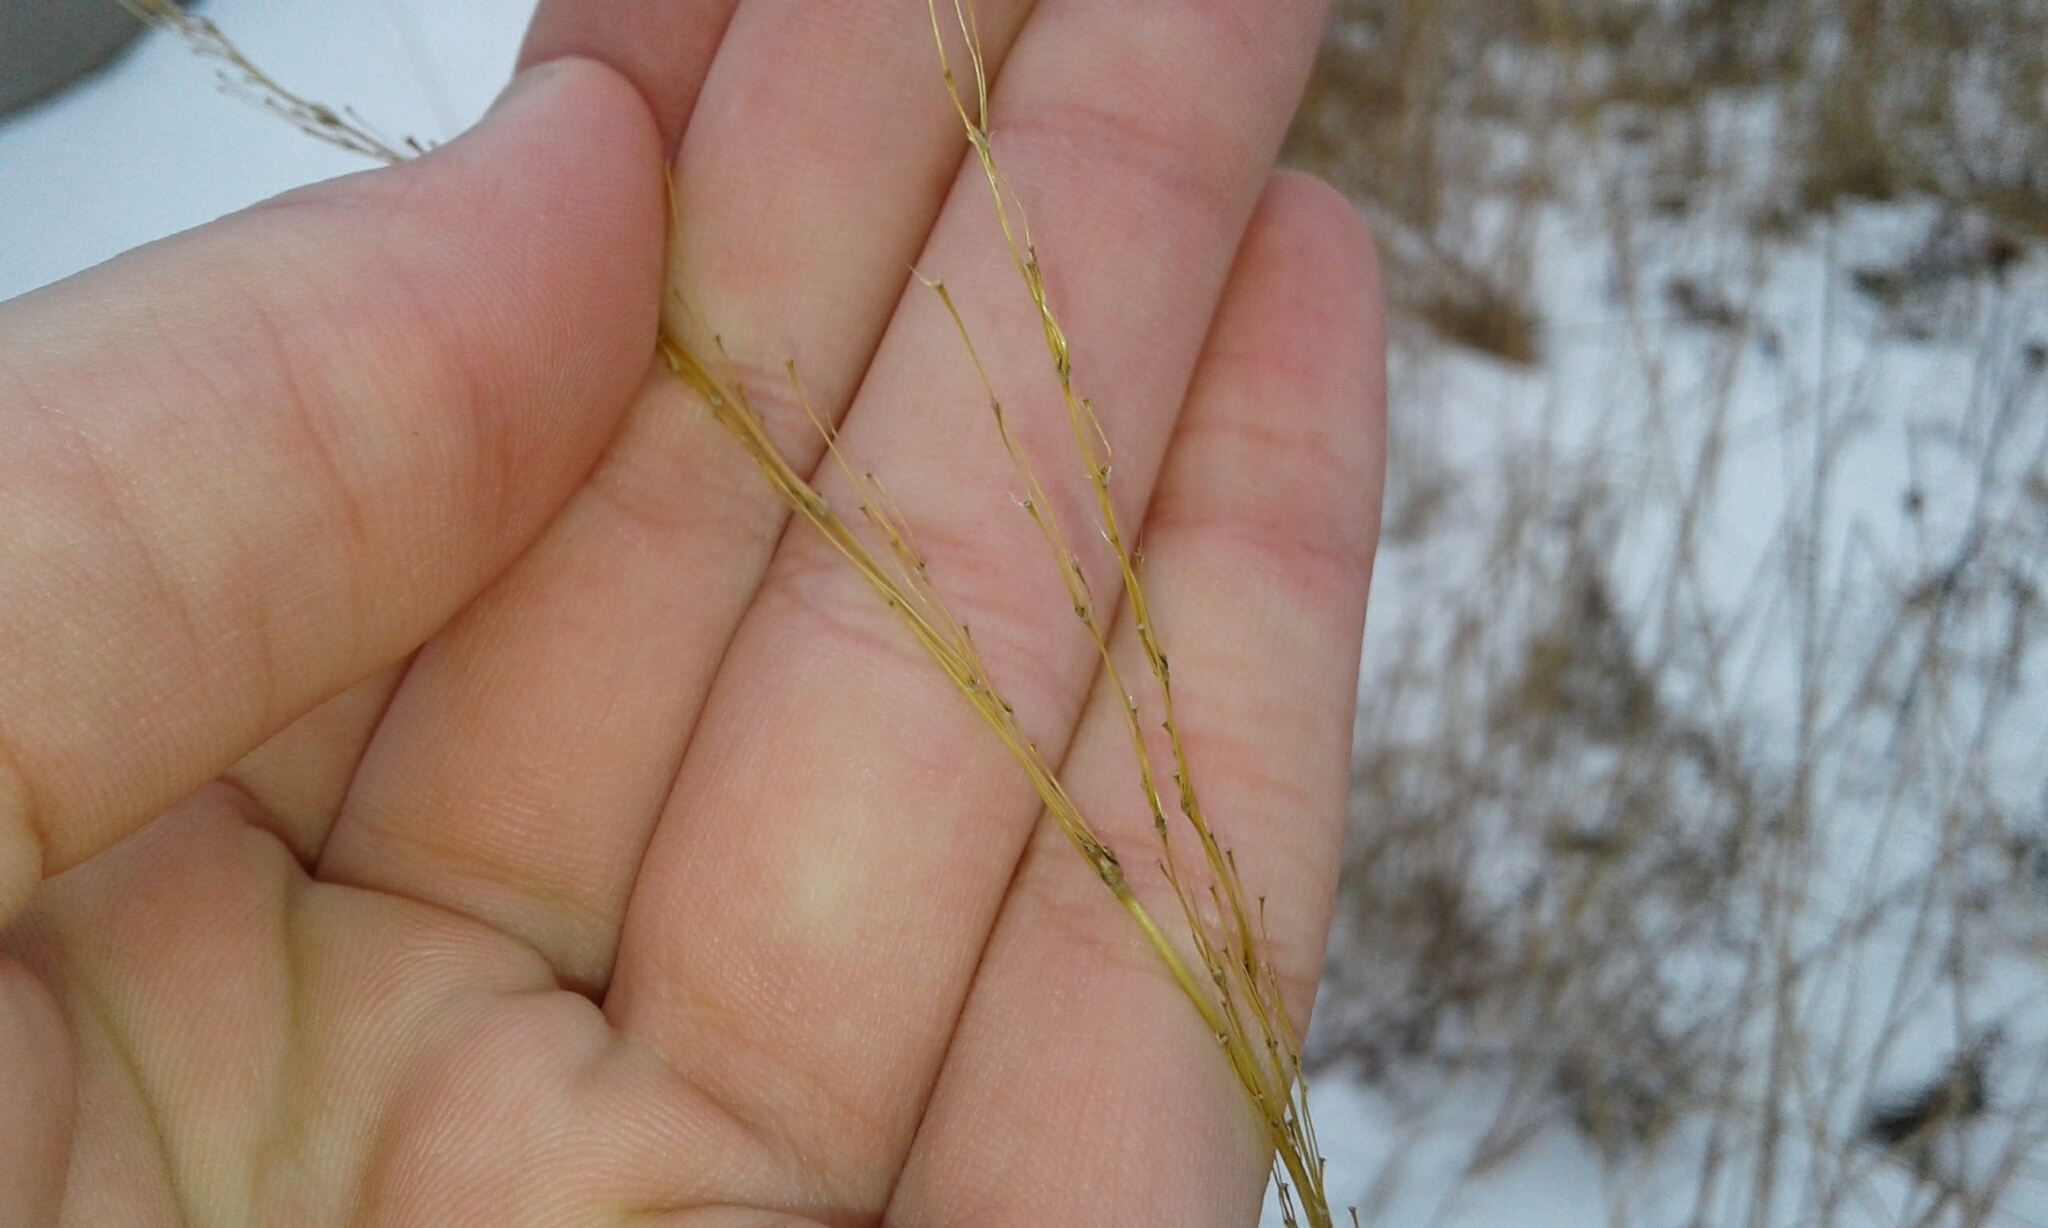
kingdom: Plantae
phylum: Tracheophyta
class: Liliopsida
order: Poales
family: Poaceae
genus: Andropogon
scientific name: Andropogon gerardi
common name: Big bluestem
